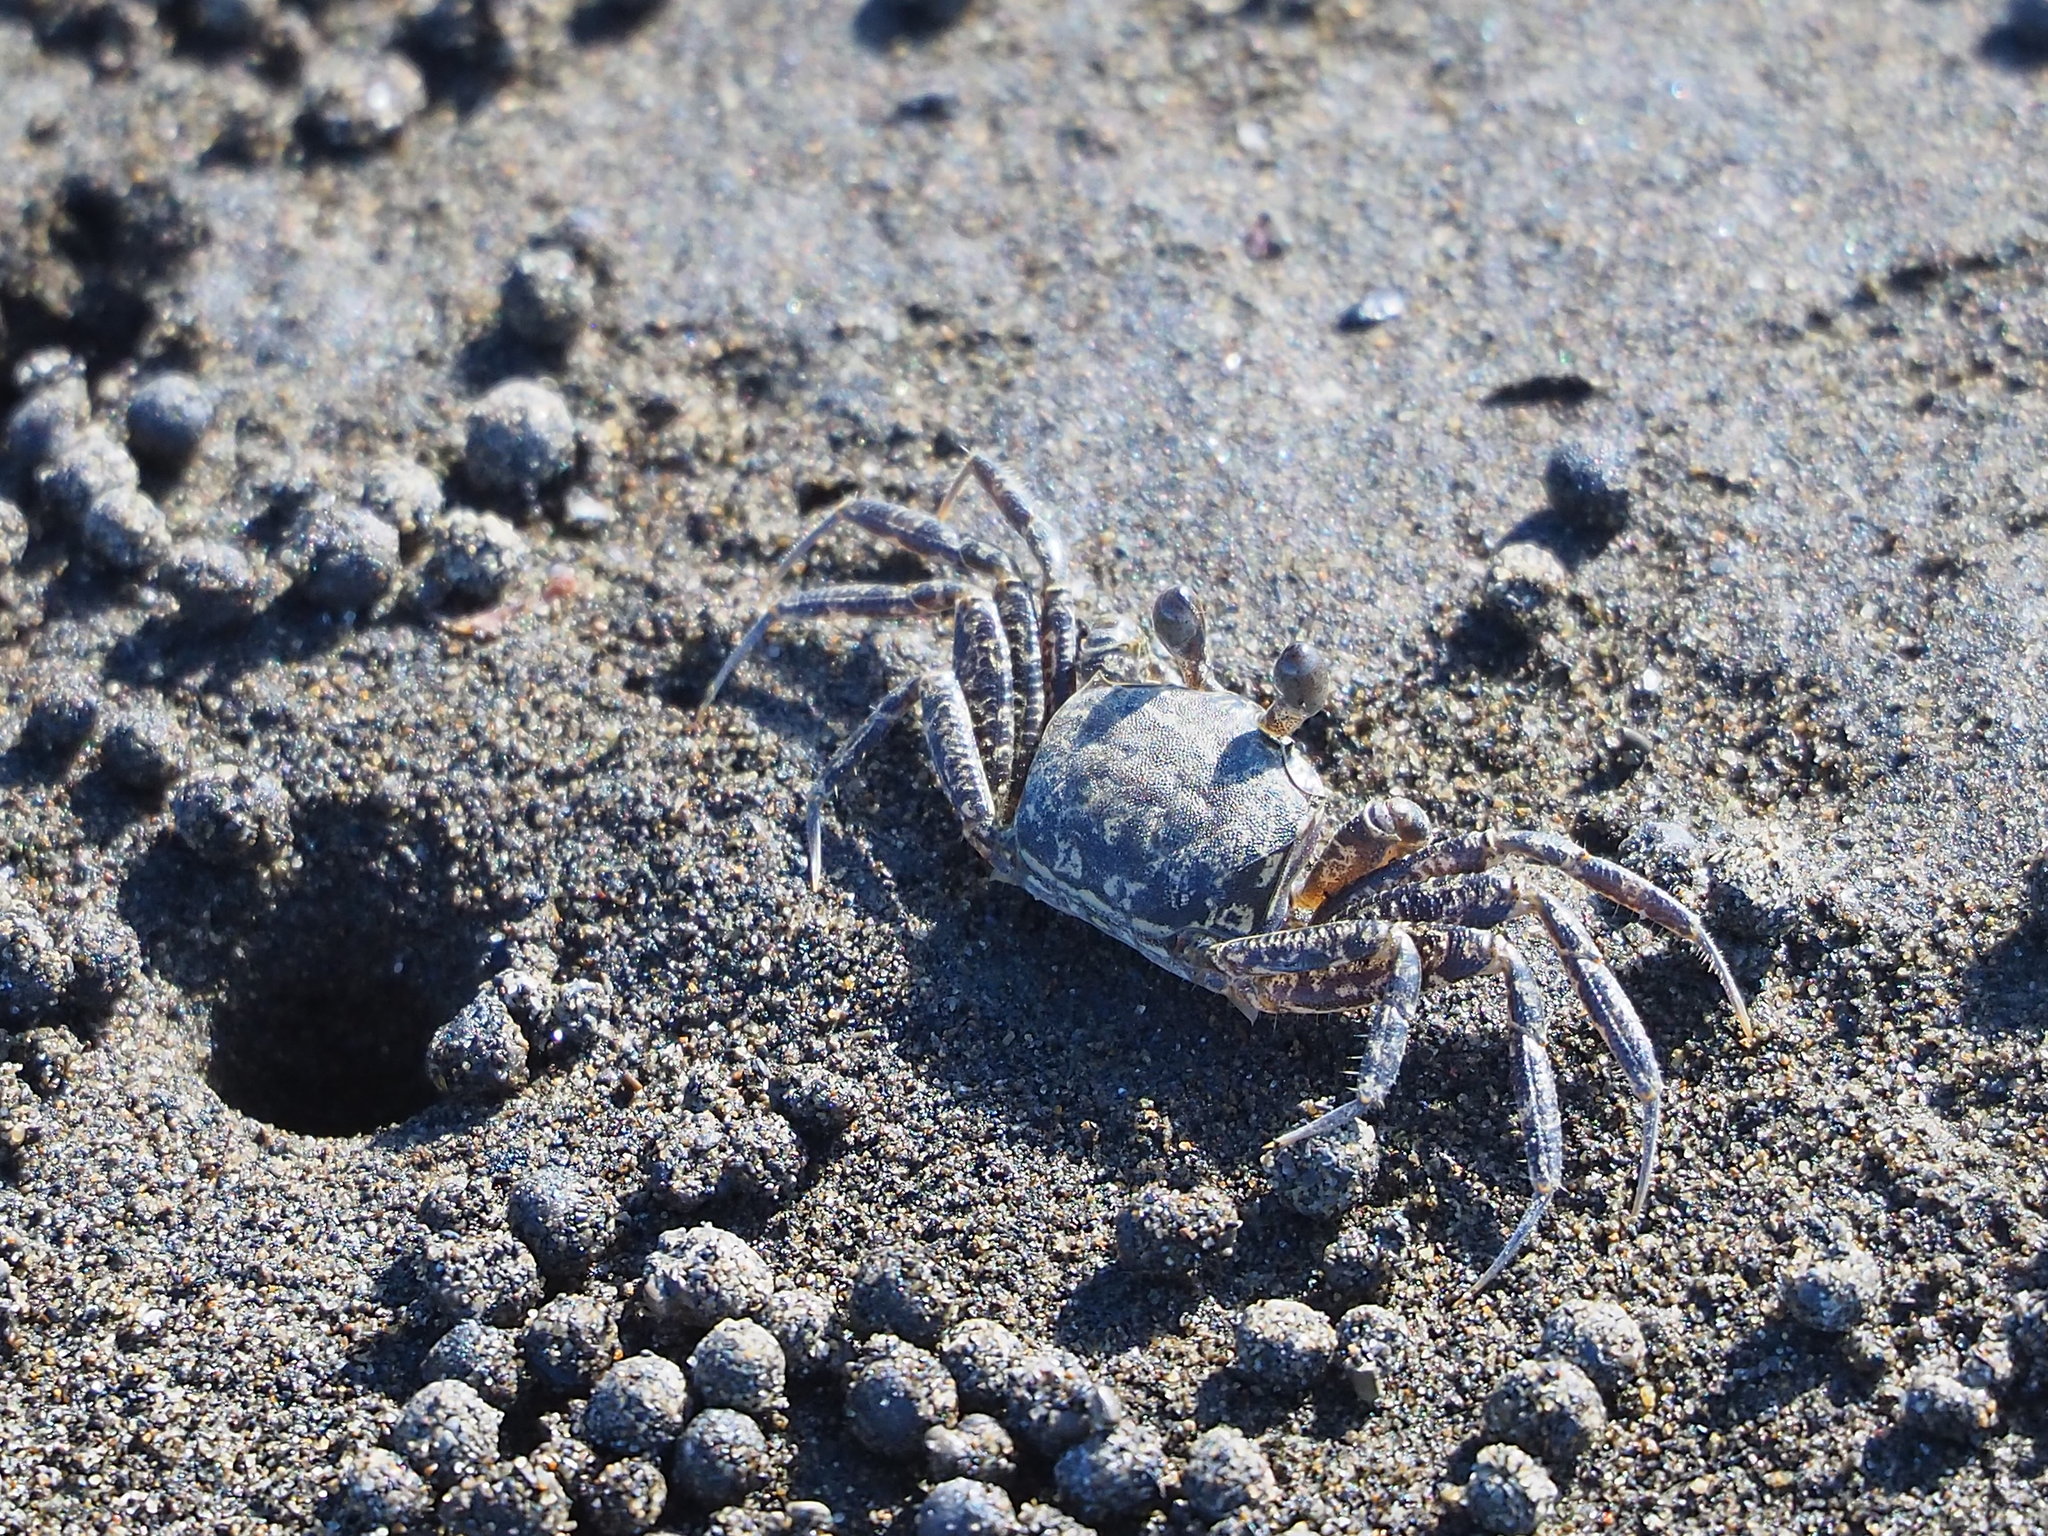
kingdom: Animalia
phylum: Arthropoda
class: Malacostraca
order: Decapoda
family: Ocypodidae
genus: Ocypode
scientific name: Ocypode ceratophthalmus
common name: Indo-pacific ghost crab
